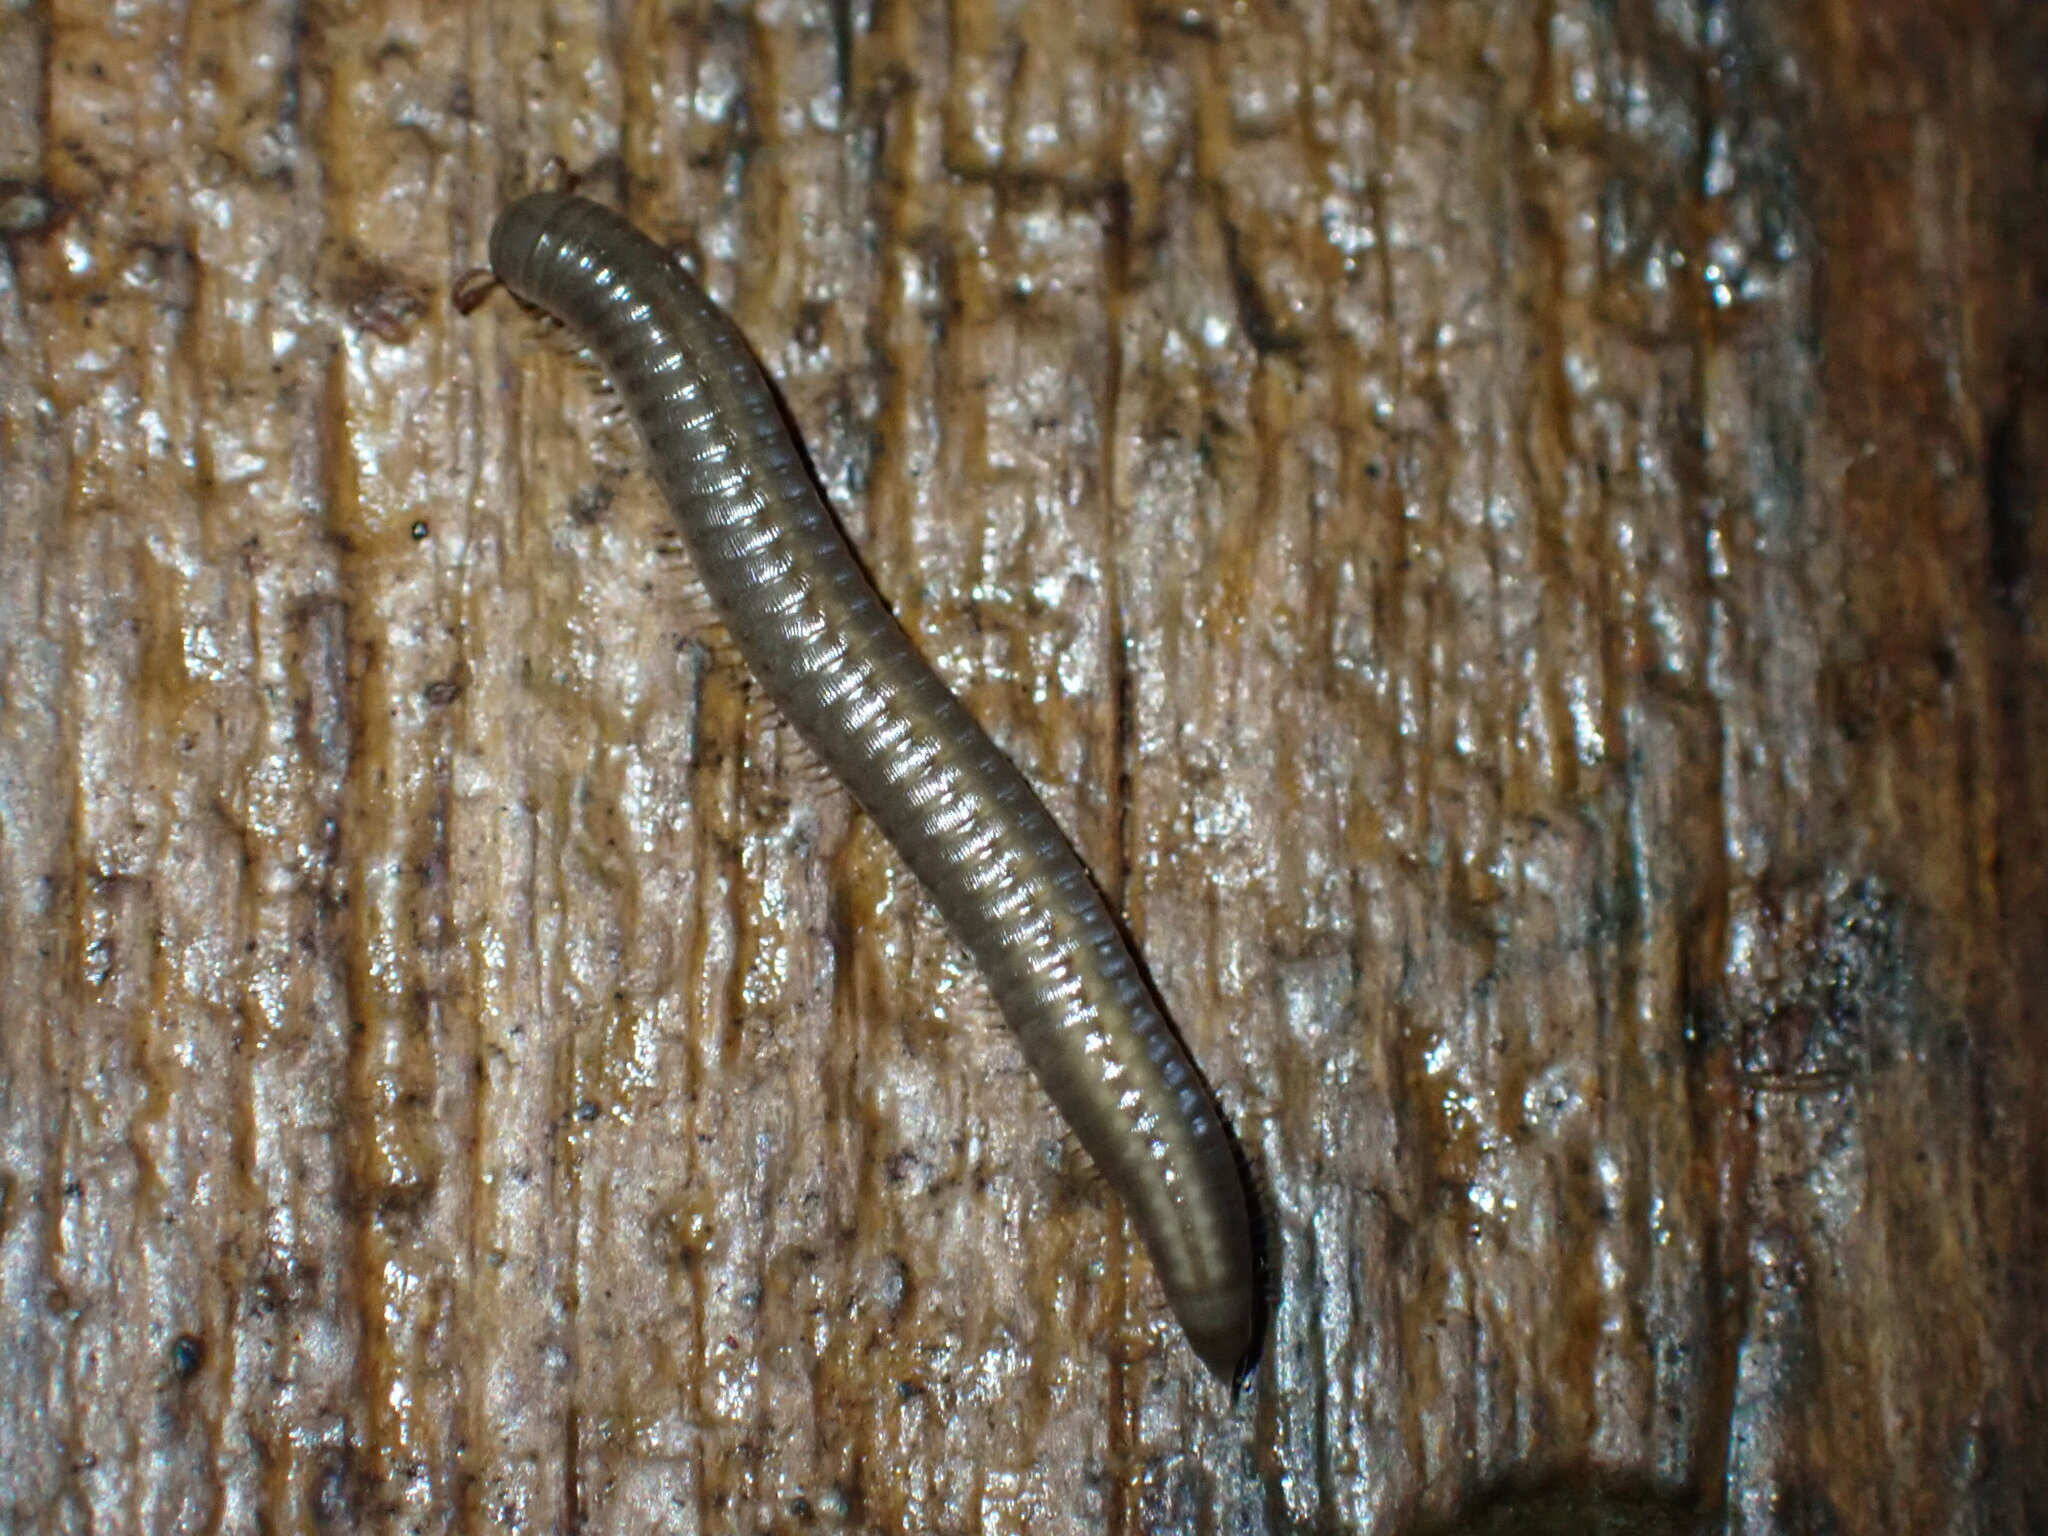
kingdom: Animalia
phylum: Arthropoda
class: Diplopoda
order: Julida
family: Julidae
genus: Ommatoiulus
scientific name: Ommatoiulus moreleti
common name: Portuguese millipede
